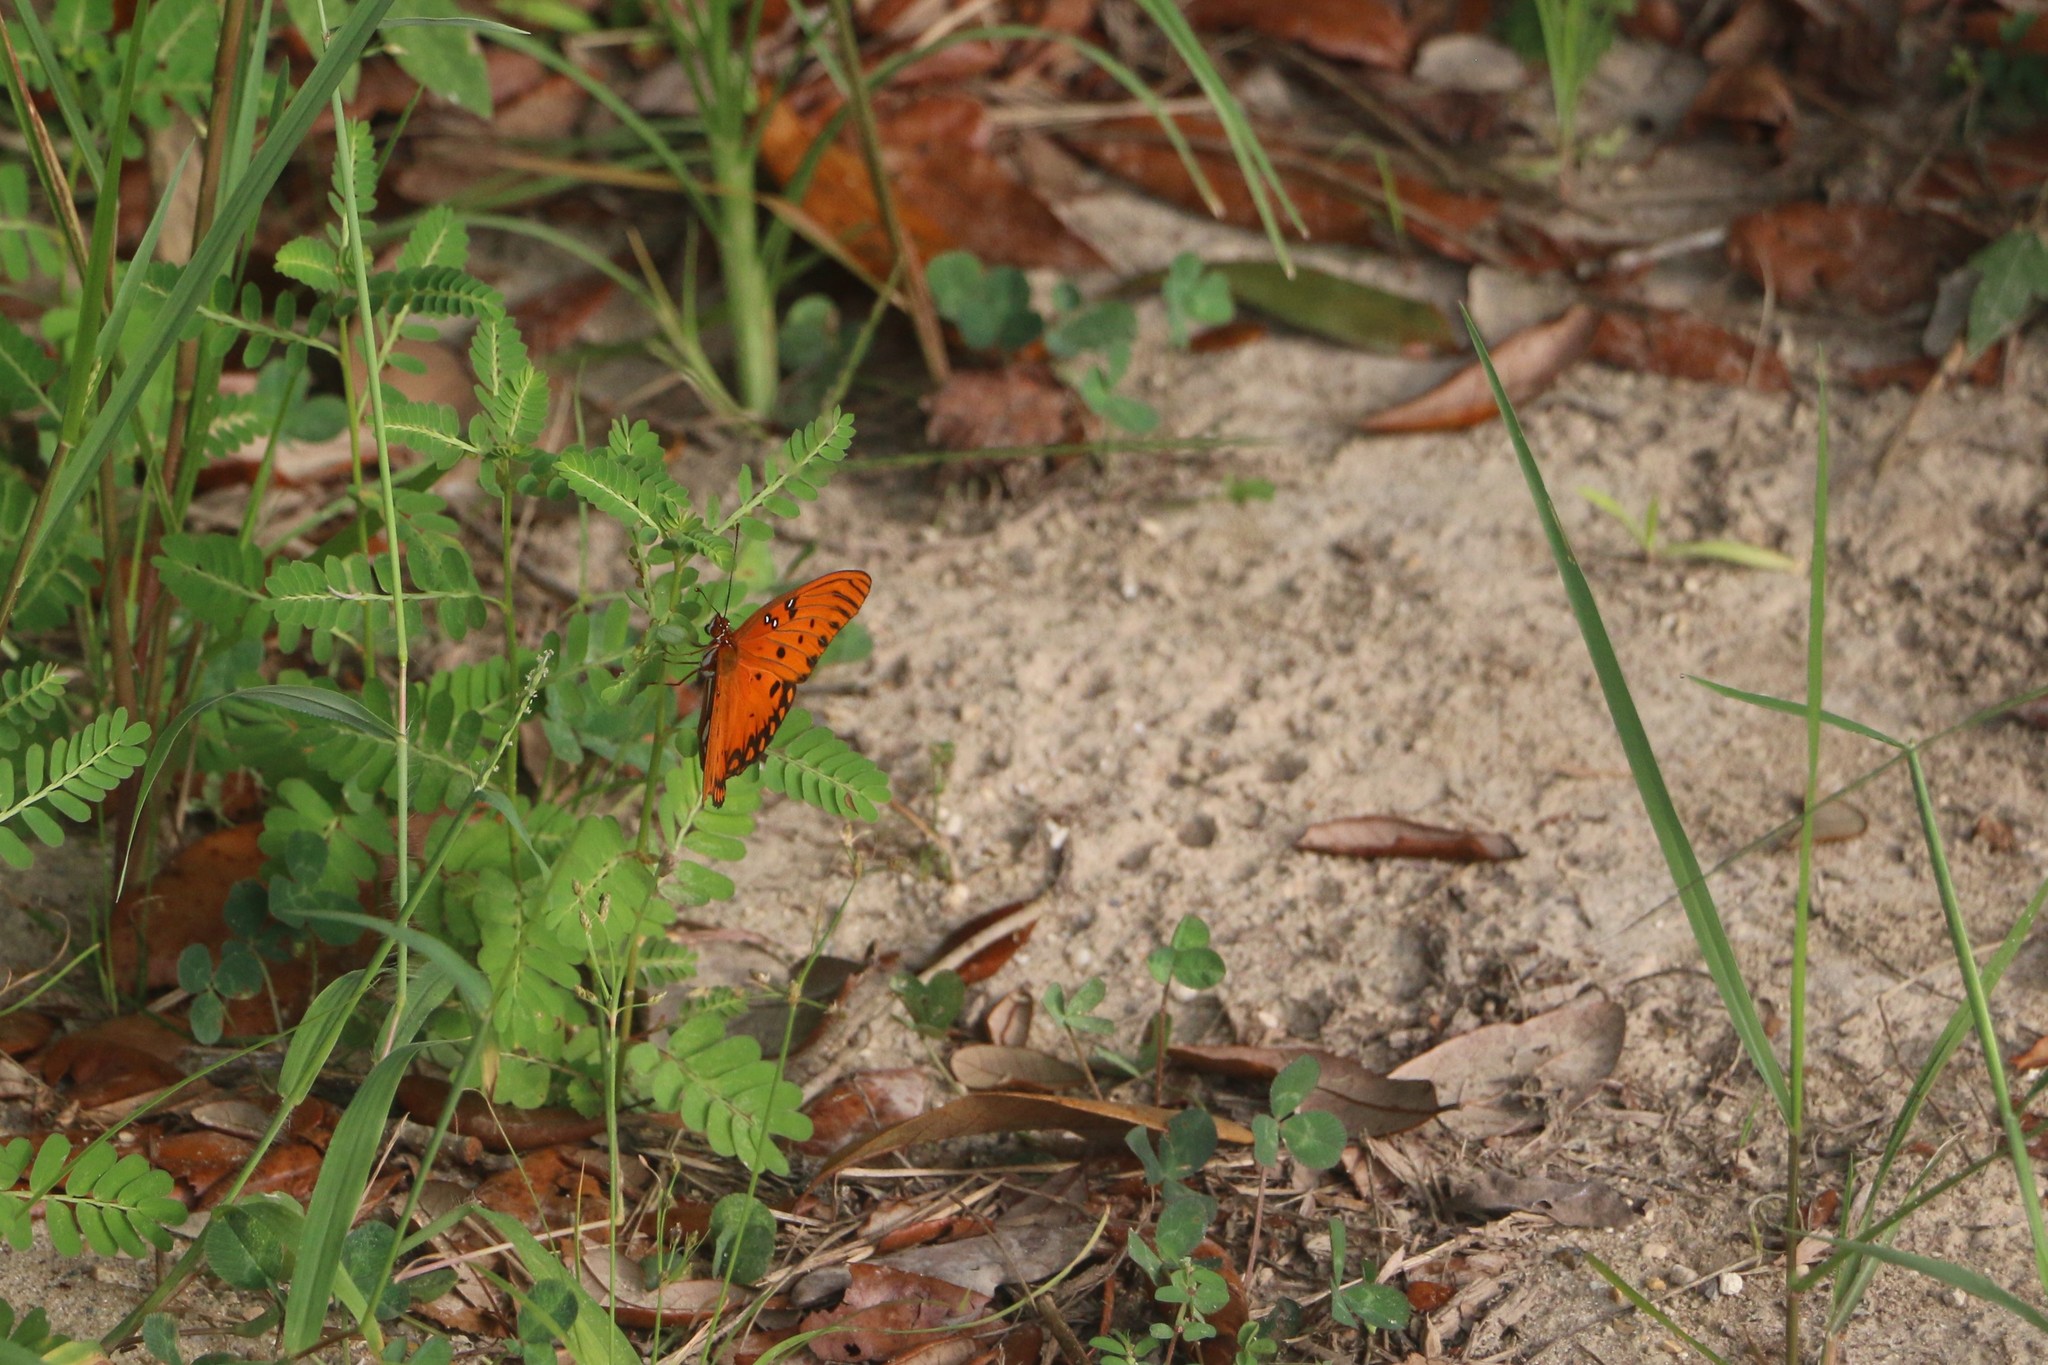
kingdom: Animalia
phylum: Arthropoda
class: Insecta
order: Lepidoptera
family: Nymphalidae
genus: Dione
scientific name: Dione vanillae
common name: Gulf fritillary
